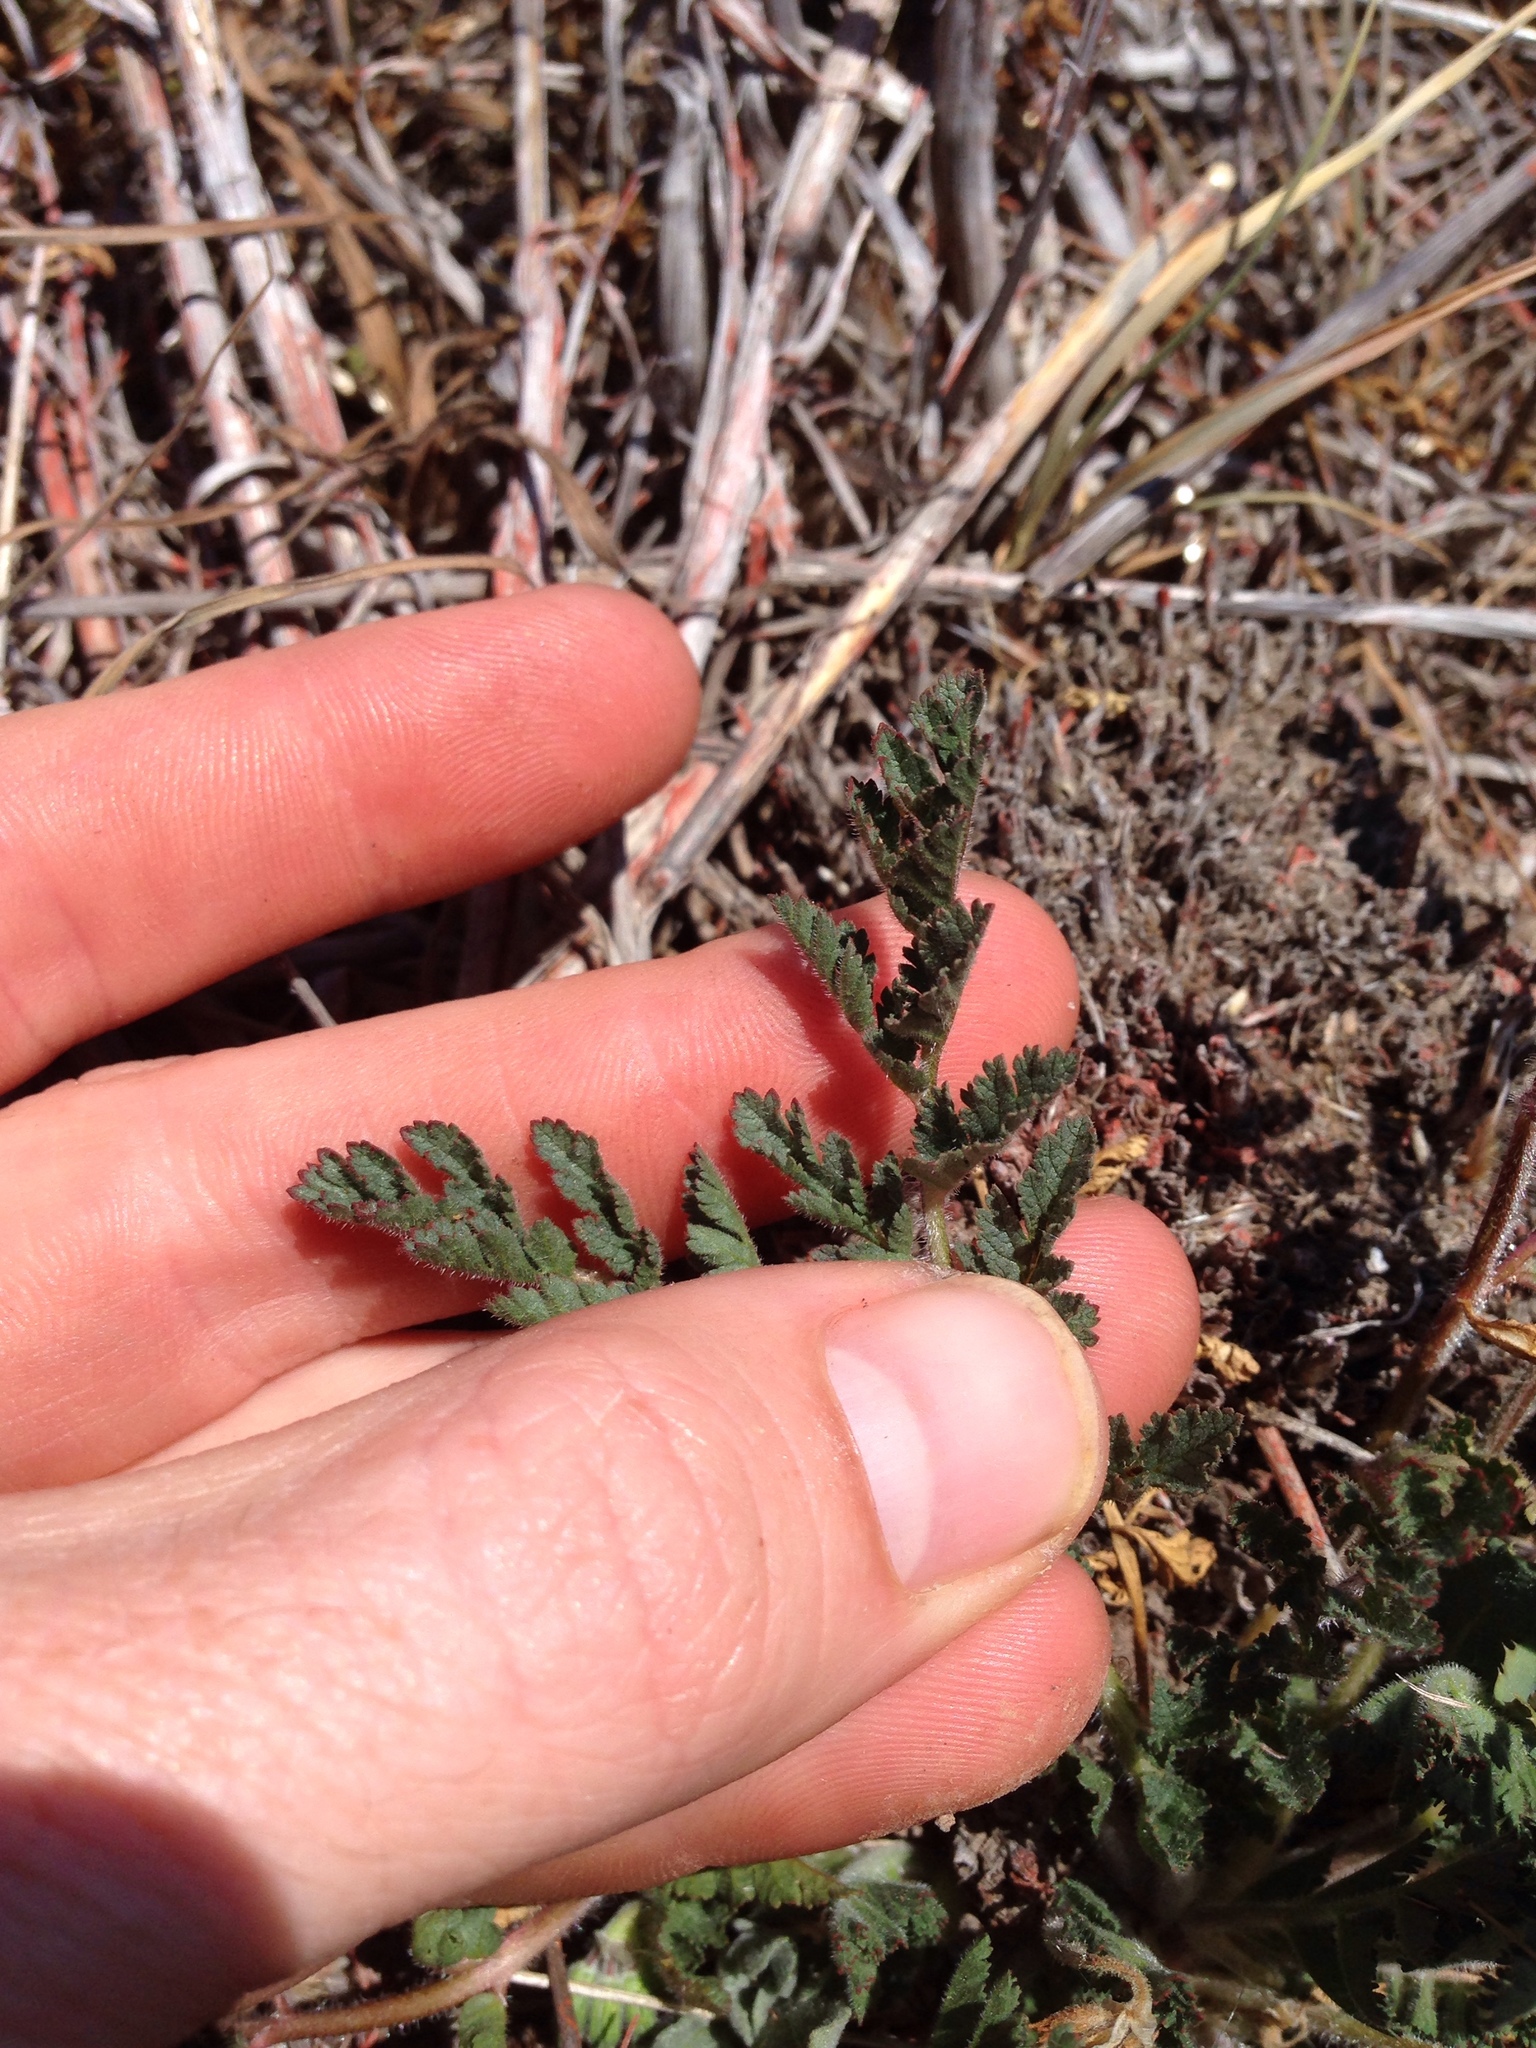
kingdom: Plantae
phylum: Tracheophyta
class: Magnoliopsida
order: Geraniales
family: Geraniaceae
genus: Erodium
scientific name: Erodium moschatum
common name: Musk stork's-bill
